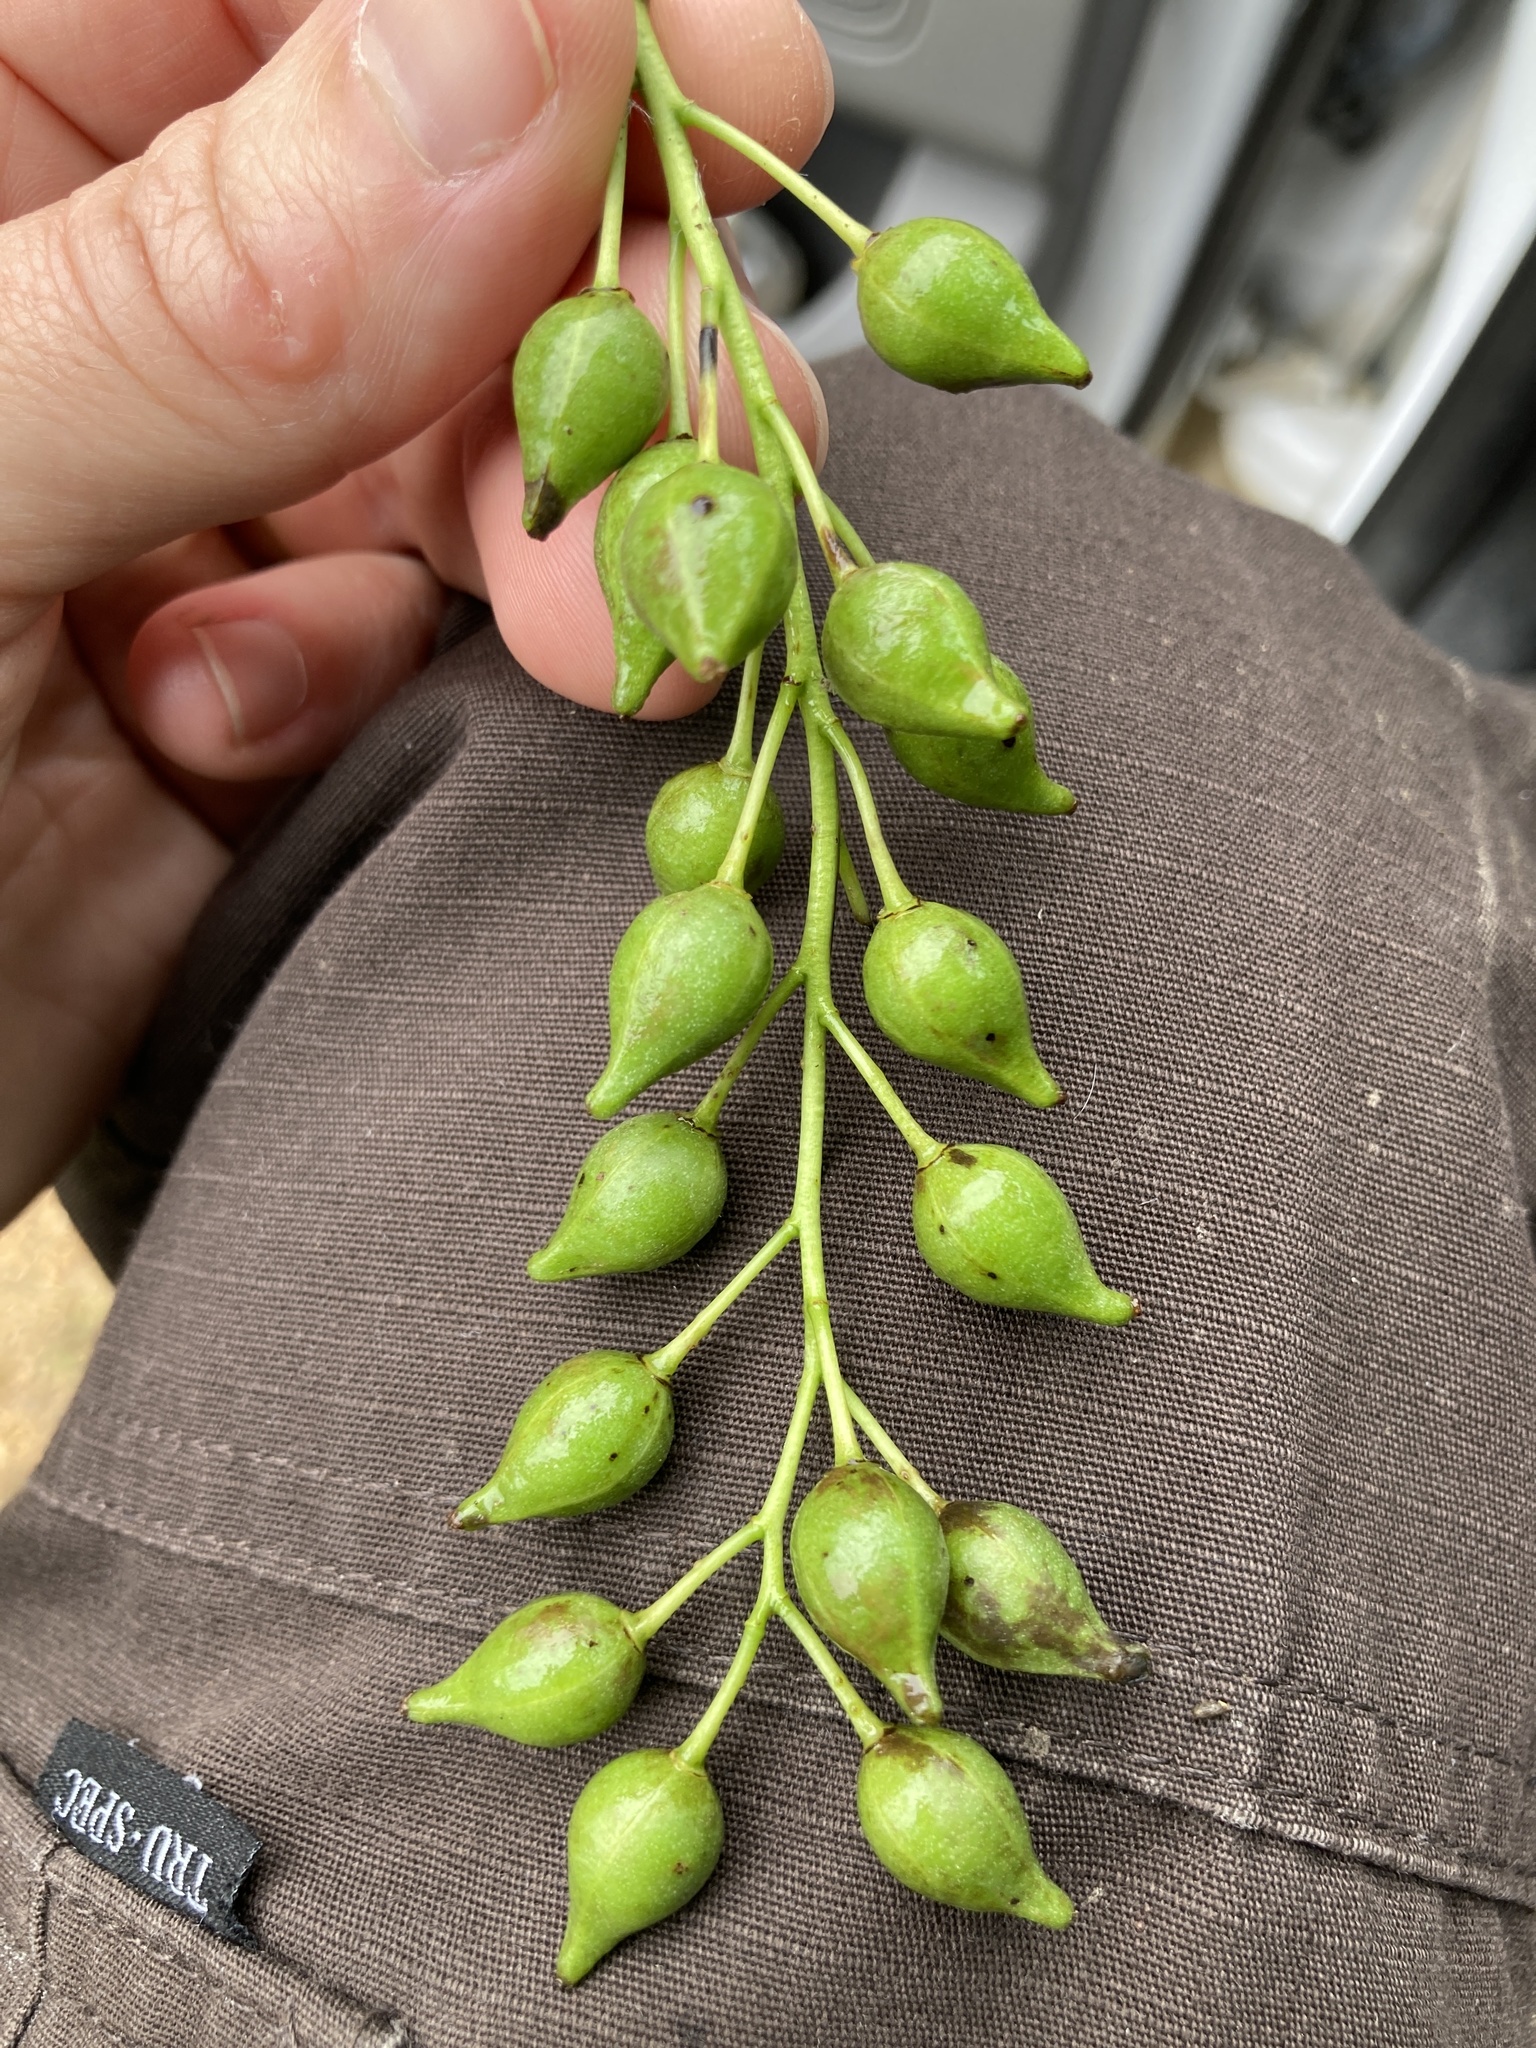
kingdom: Plantae
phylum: Tracheophyta
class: Magnoliopsida
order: Malpighiales
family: Salicaceae
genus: Populus
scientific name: Populus deltoides
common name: Eastern cottonwood
